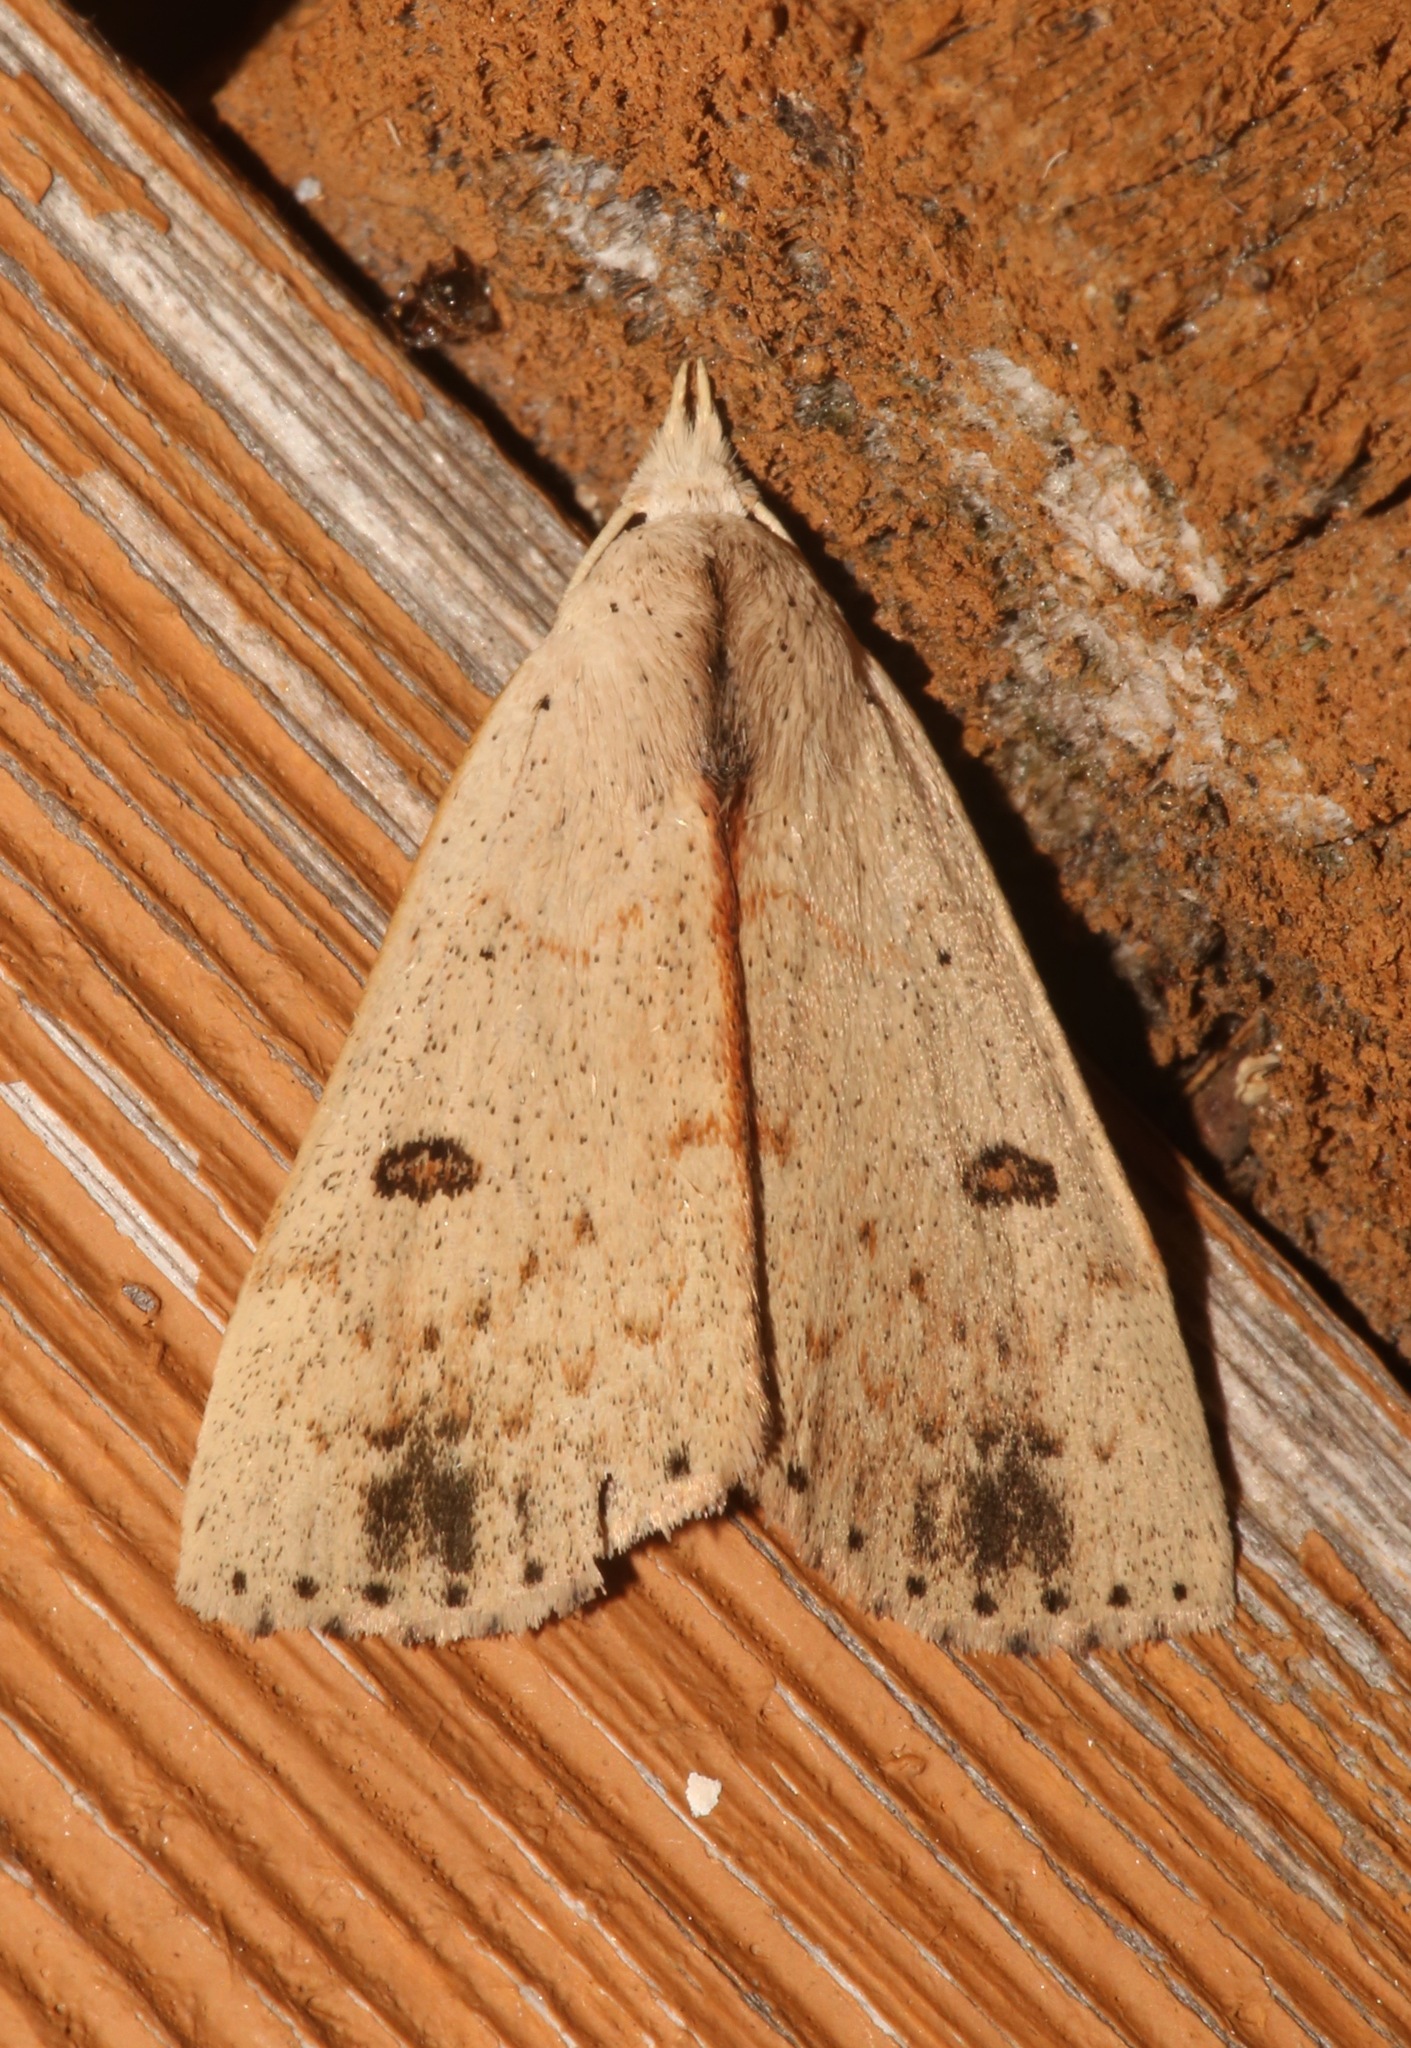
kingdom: Animalia
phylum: Arthropoda
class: Insecta
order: Lepidoptera
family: Erebidae
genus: Scolecocampa
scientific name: Scolecocampa liburna
